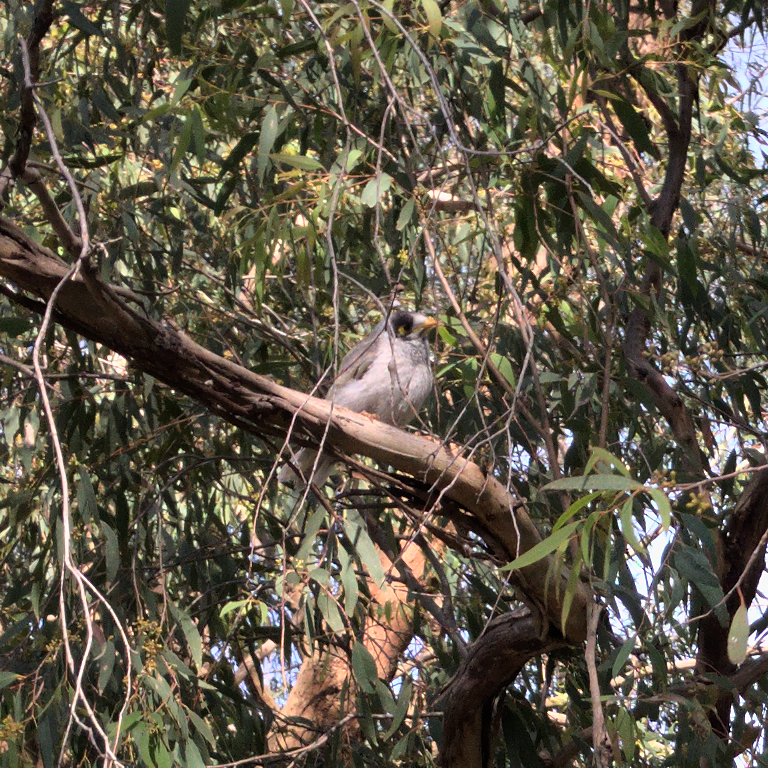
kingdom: Animalia
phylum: Chordata
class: Aves
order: Passeriformes
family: Meliphagidae
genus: Manorina
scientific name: Manorina melanocephala
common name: Noisy miner
